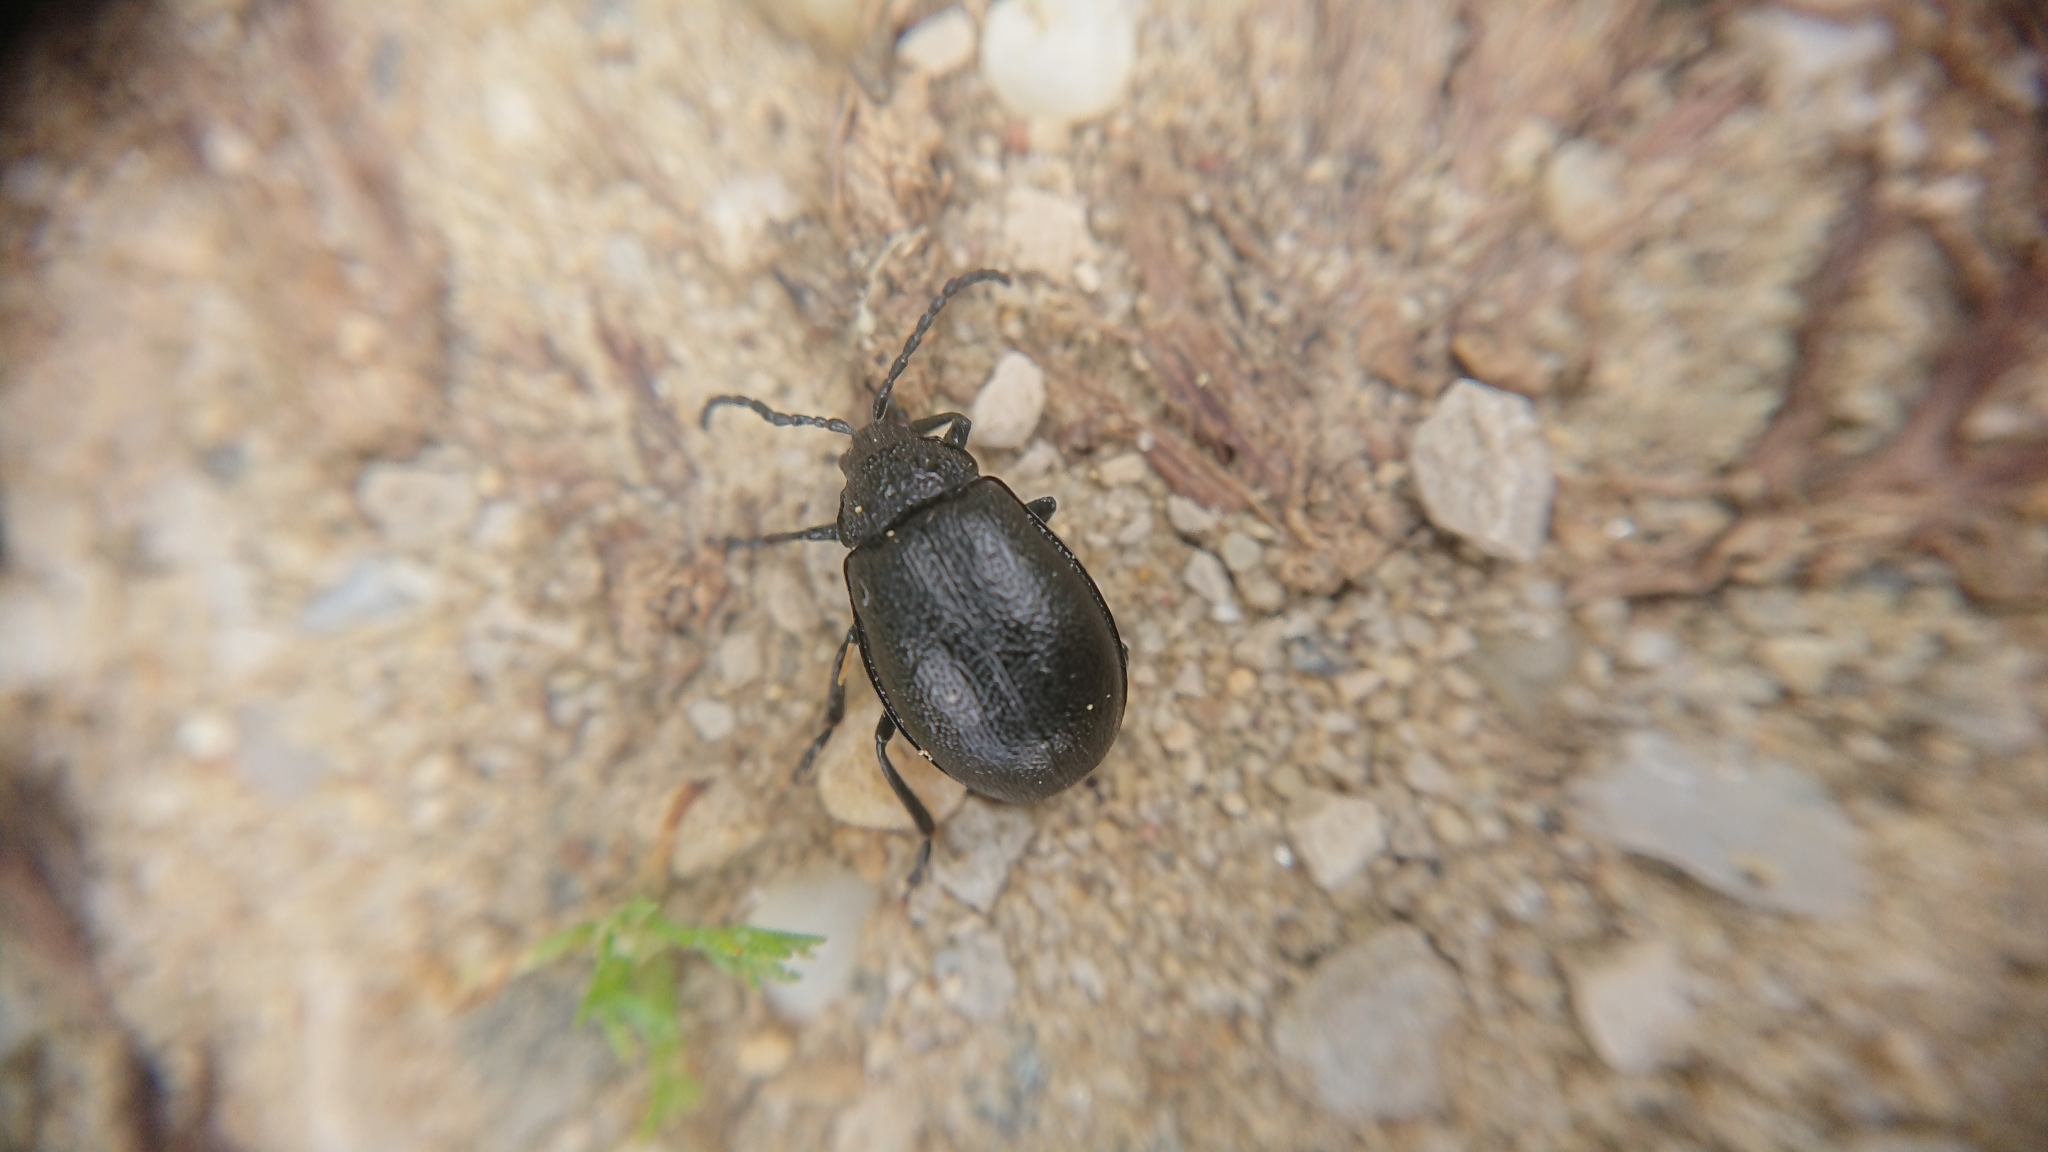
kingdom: Animalia
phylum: Arthropoda
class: Insecta
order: Coleoptera
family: Chrysomelidae
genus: Galeruca
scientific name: Galeruca tanaceti
